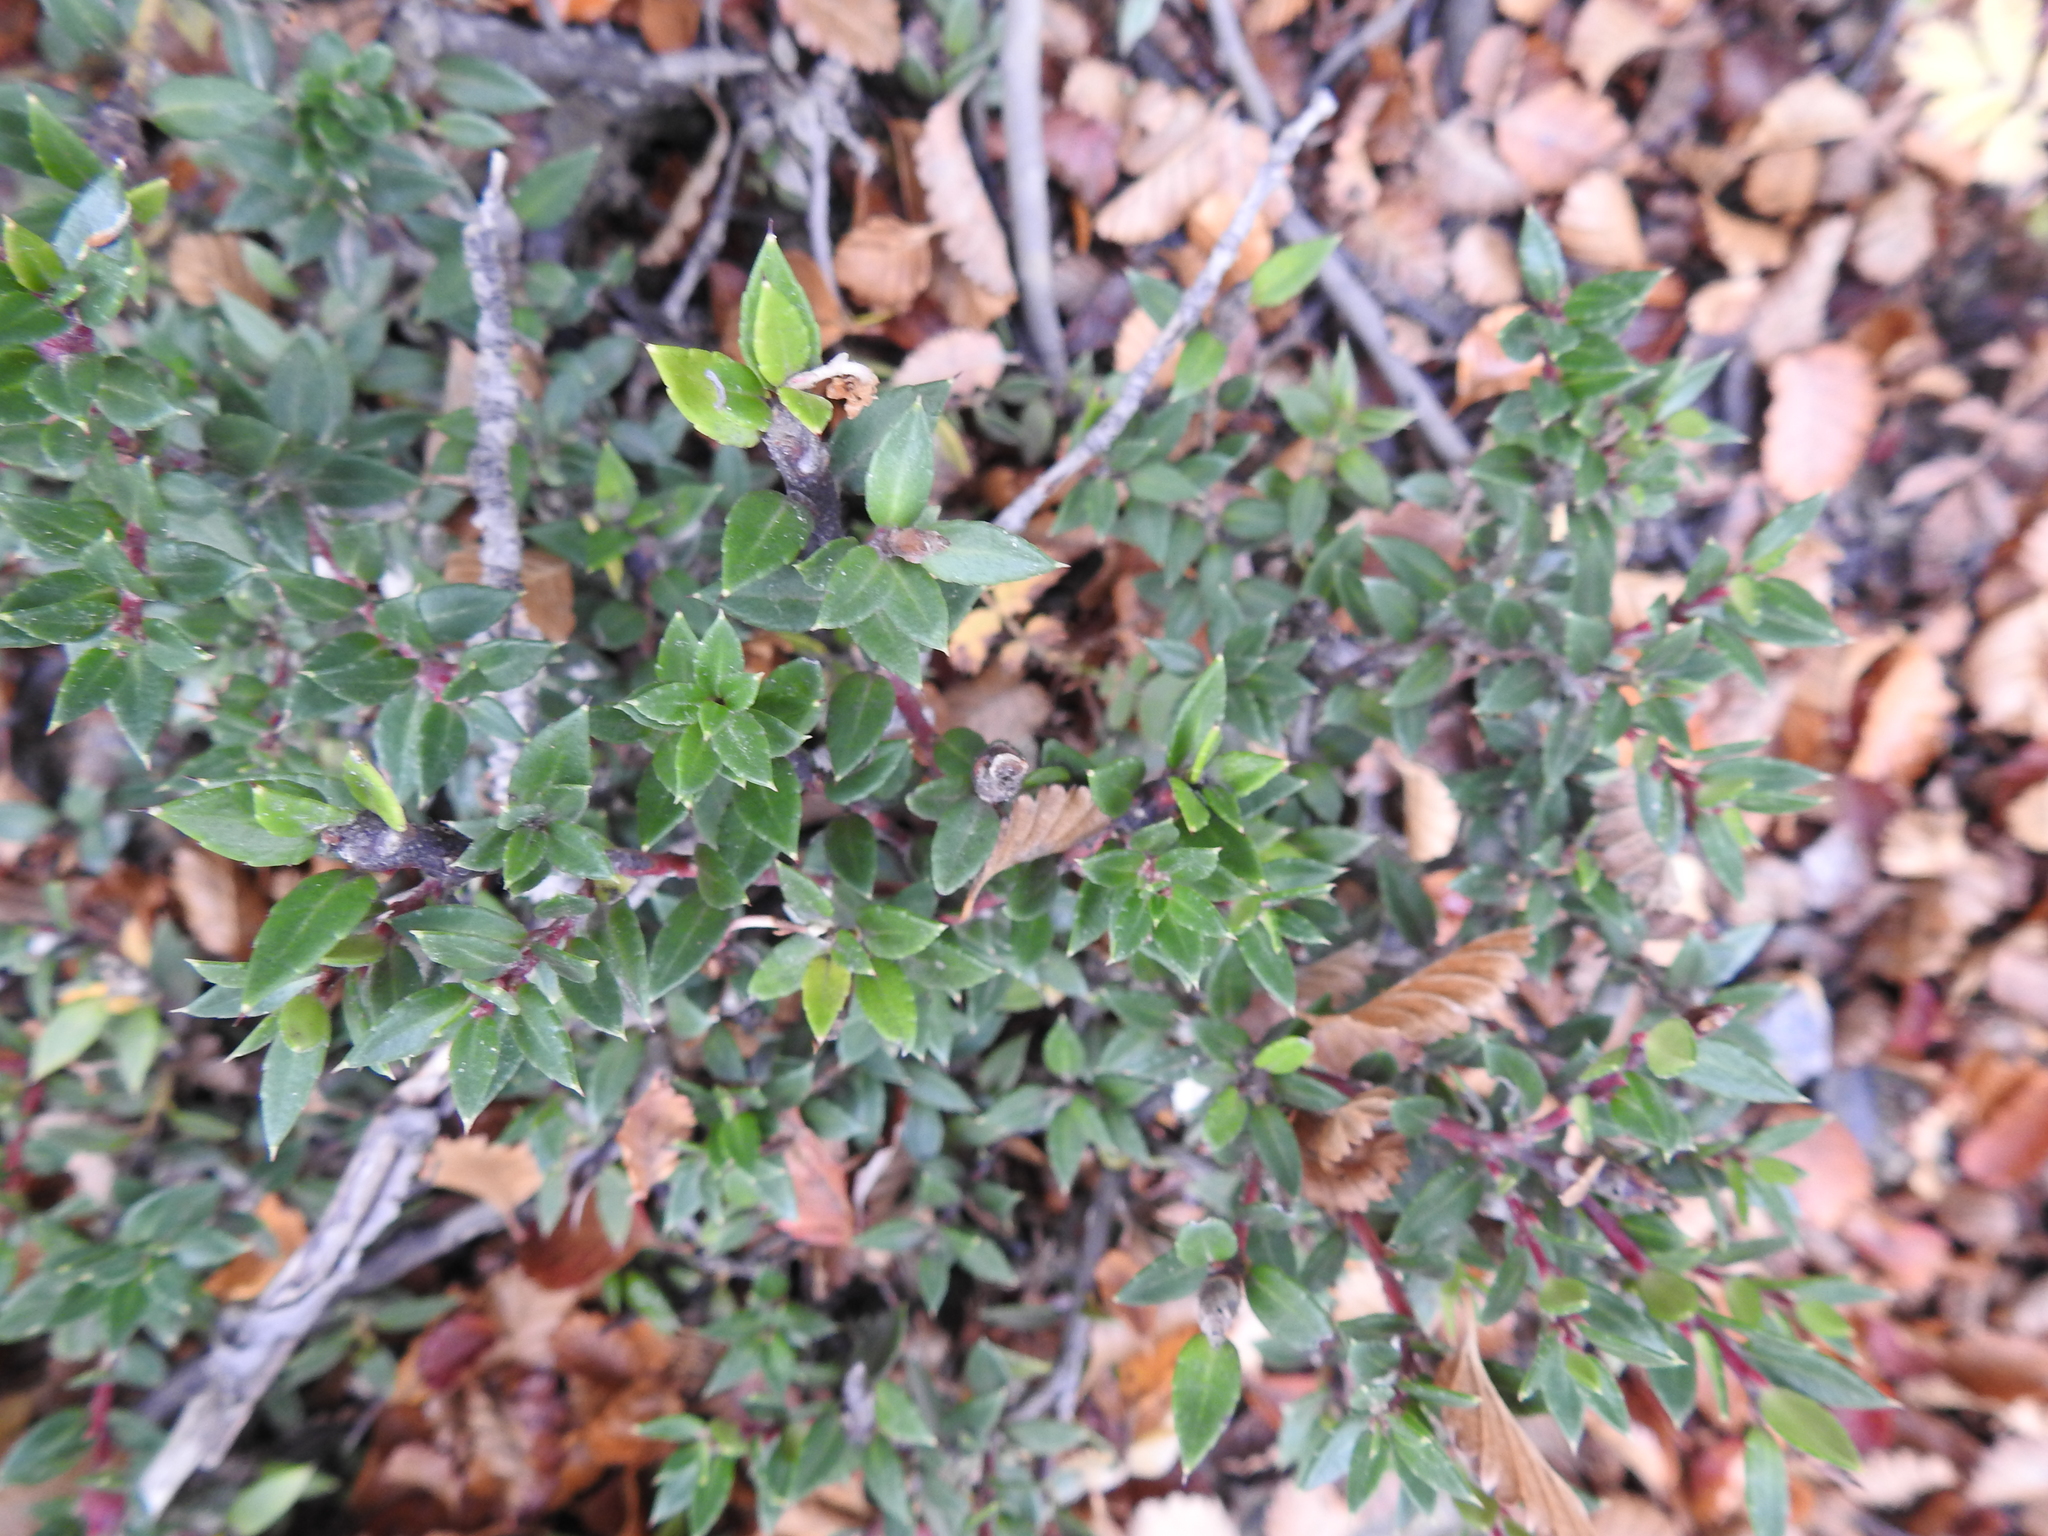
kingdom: Plantae
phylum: Tracheophyta
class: Magnoliopsida
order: Ericales
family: Ericaceae
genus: Gaultheria
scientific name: Gaultheria mucronata
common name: Prickly heath
